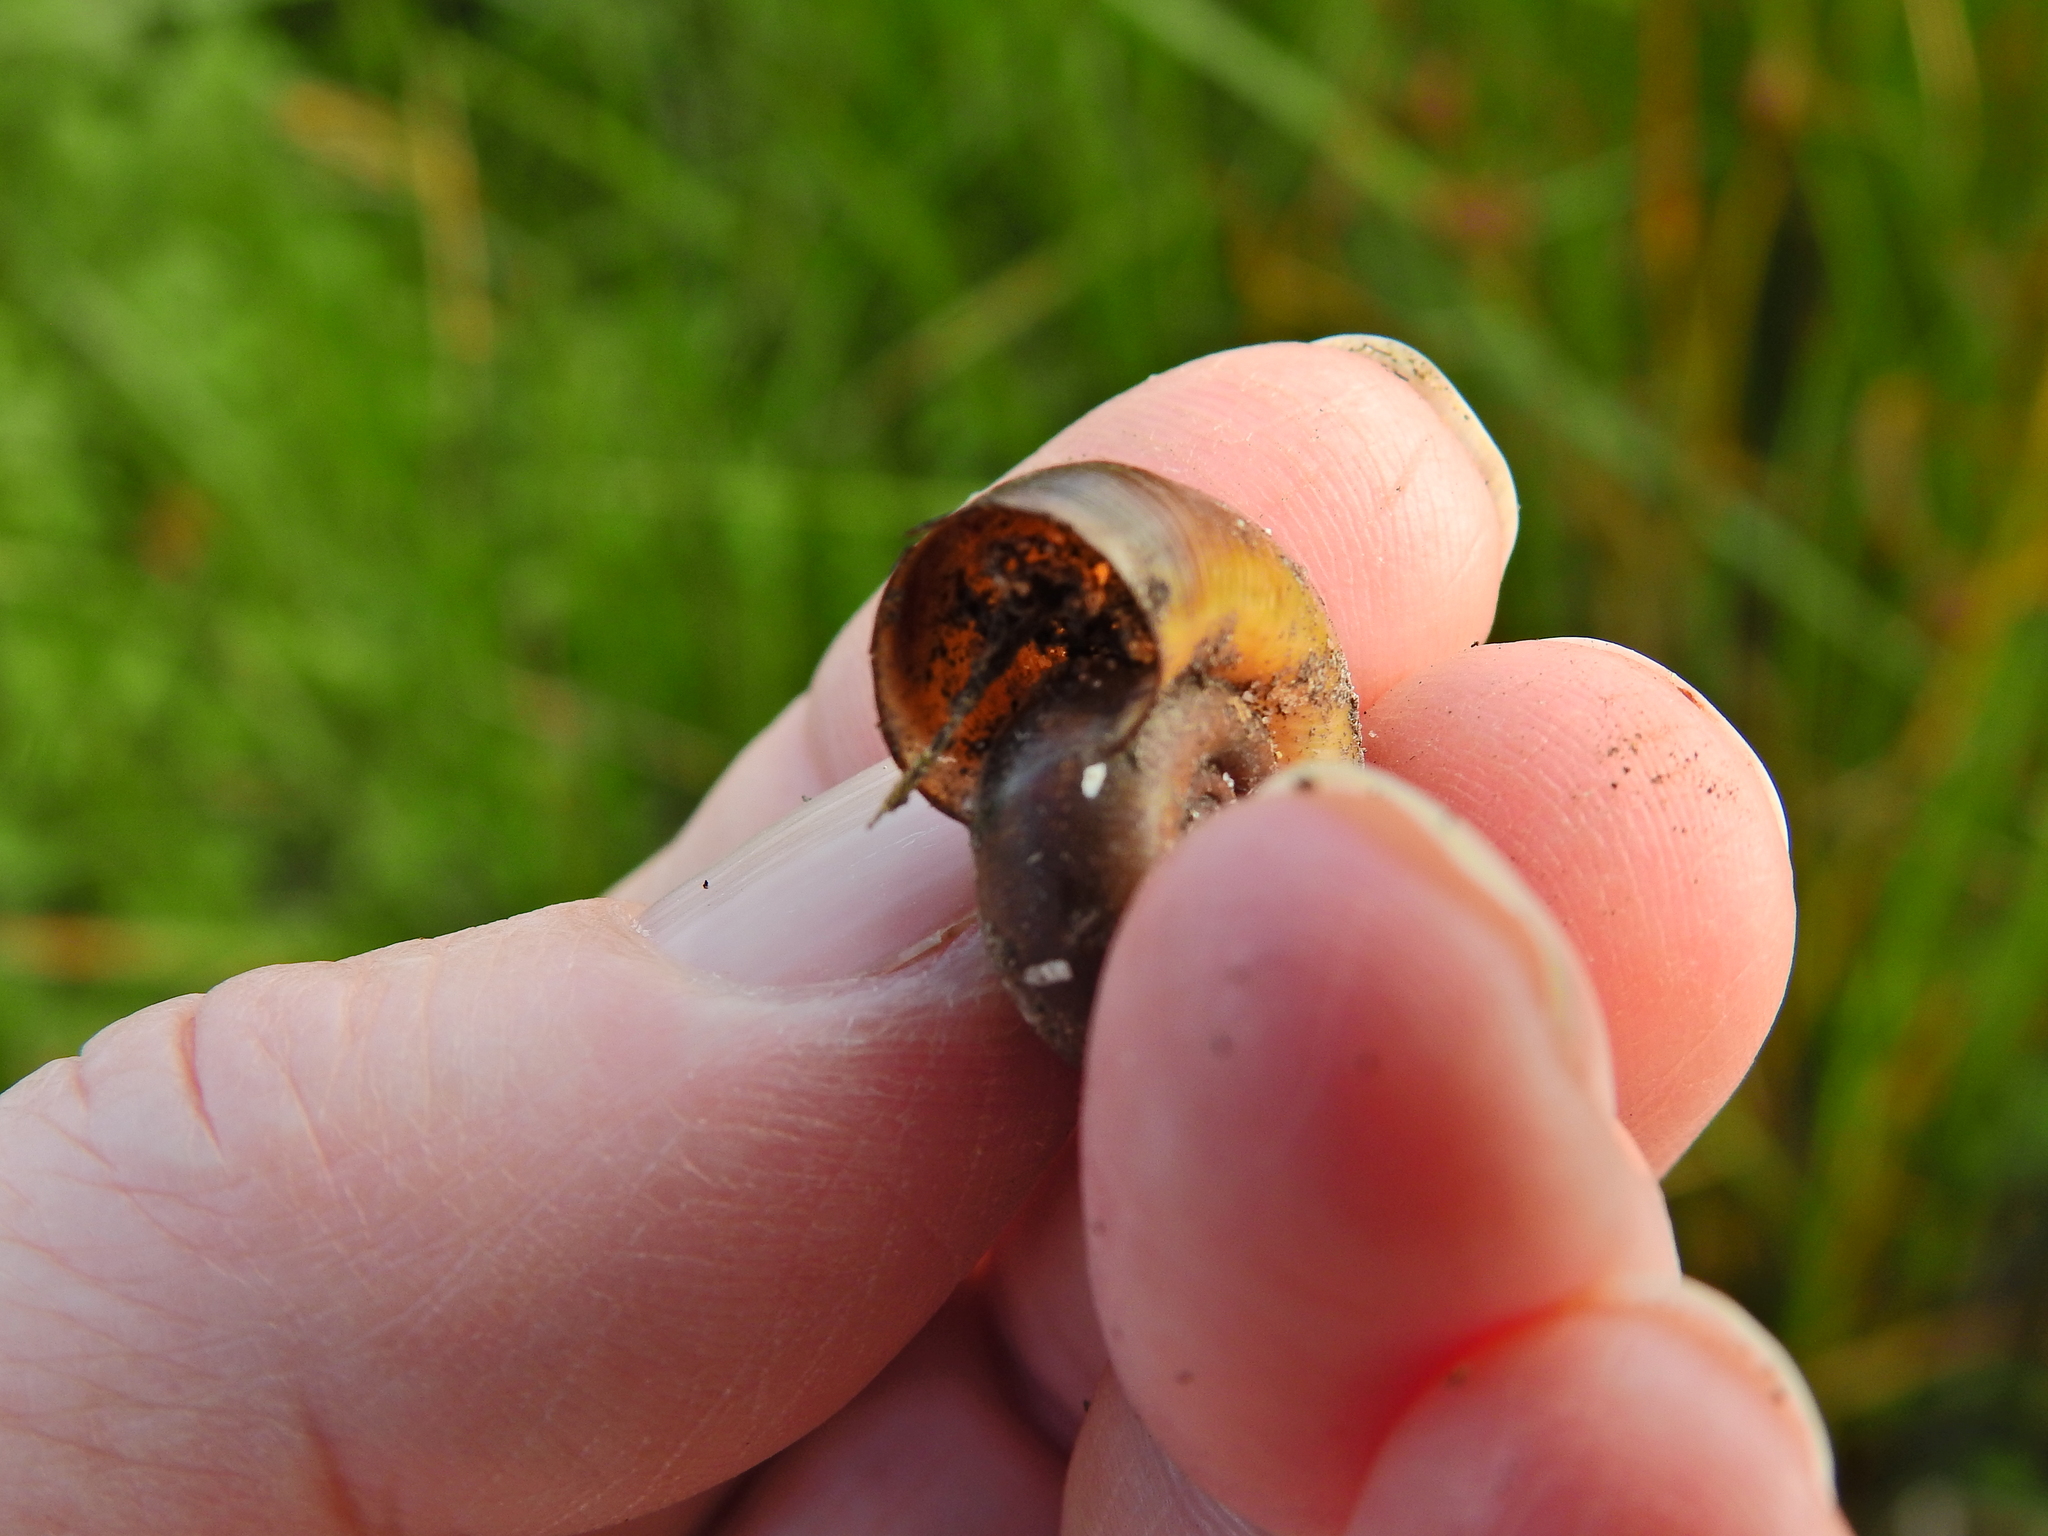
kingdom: Animalia
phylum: Mollusca
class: Gastropoda
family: Planorbidae
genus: Planorbarius
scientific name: Planorbarius corneus
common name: Great ramshorn
